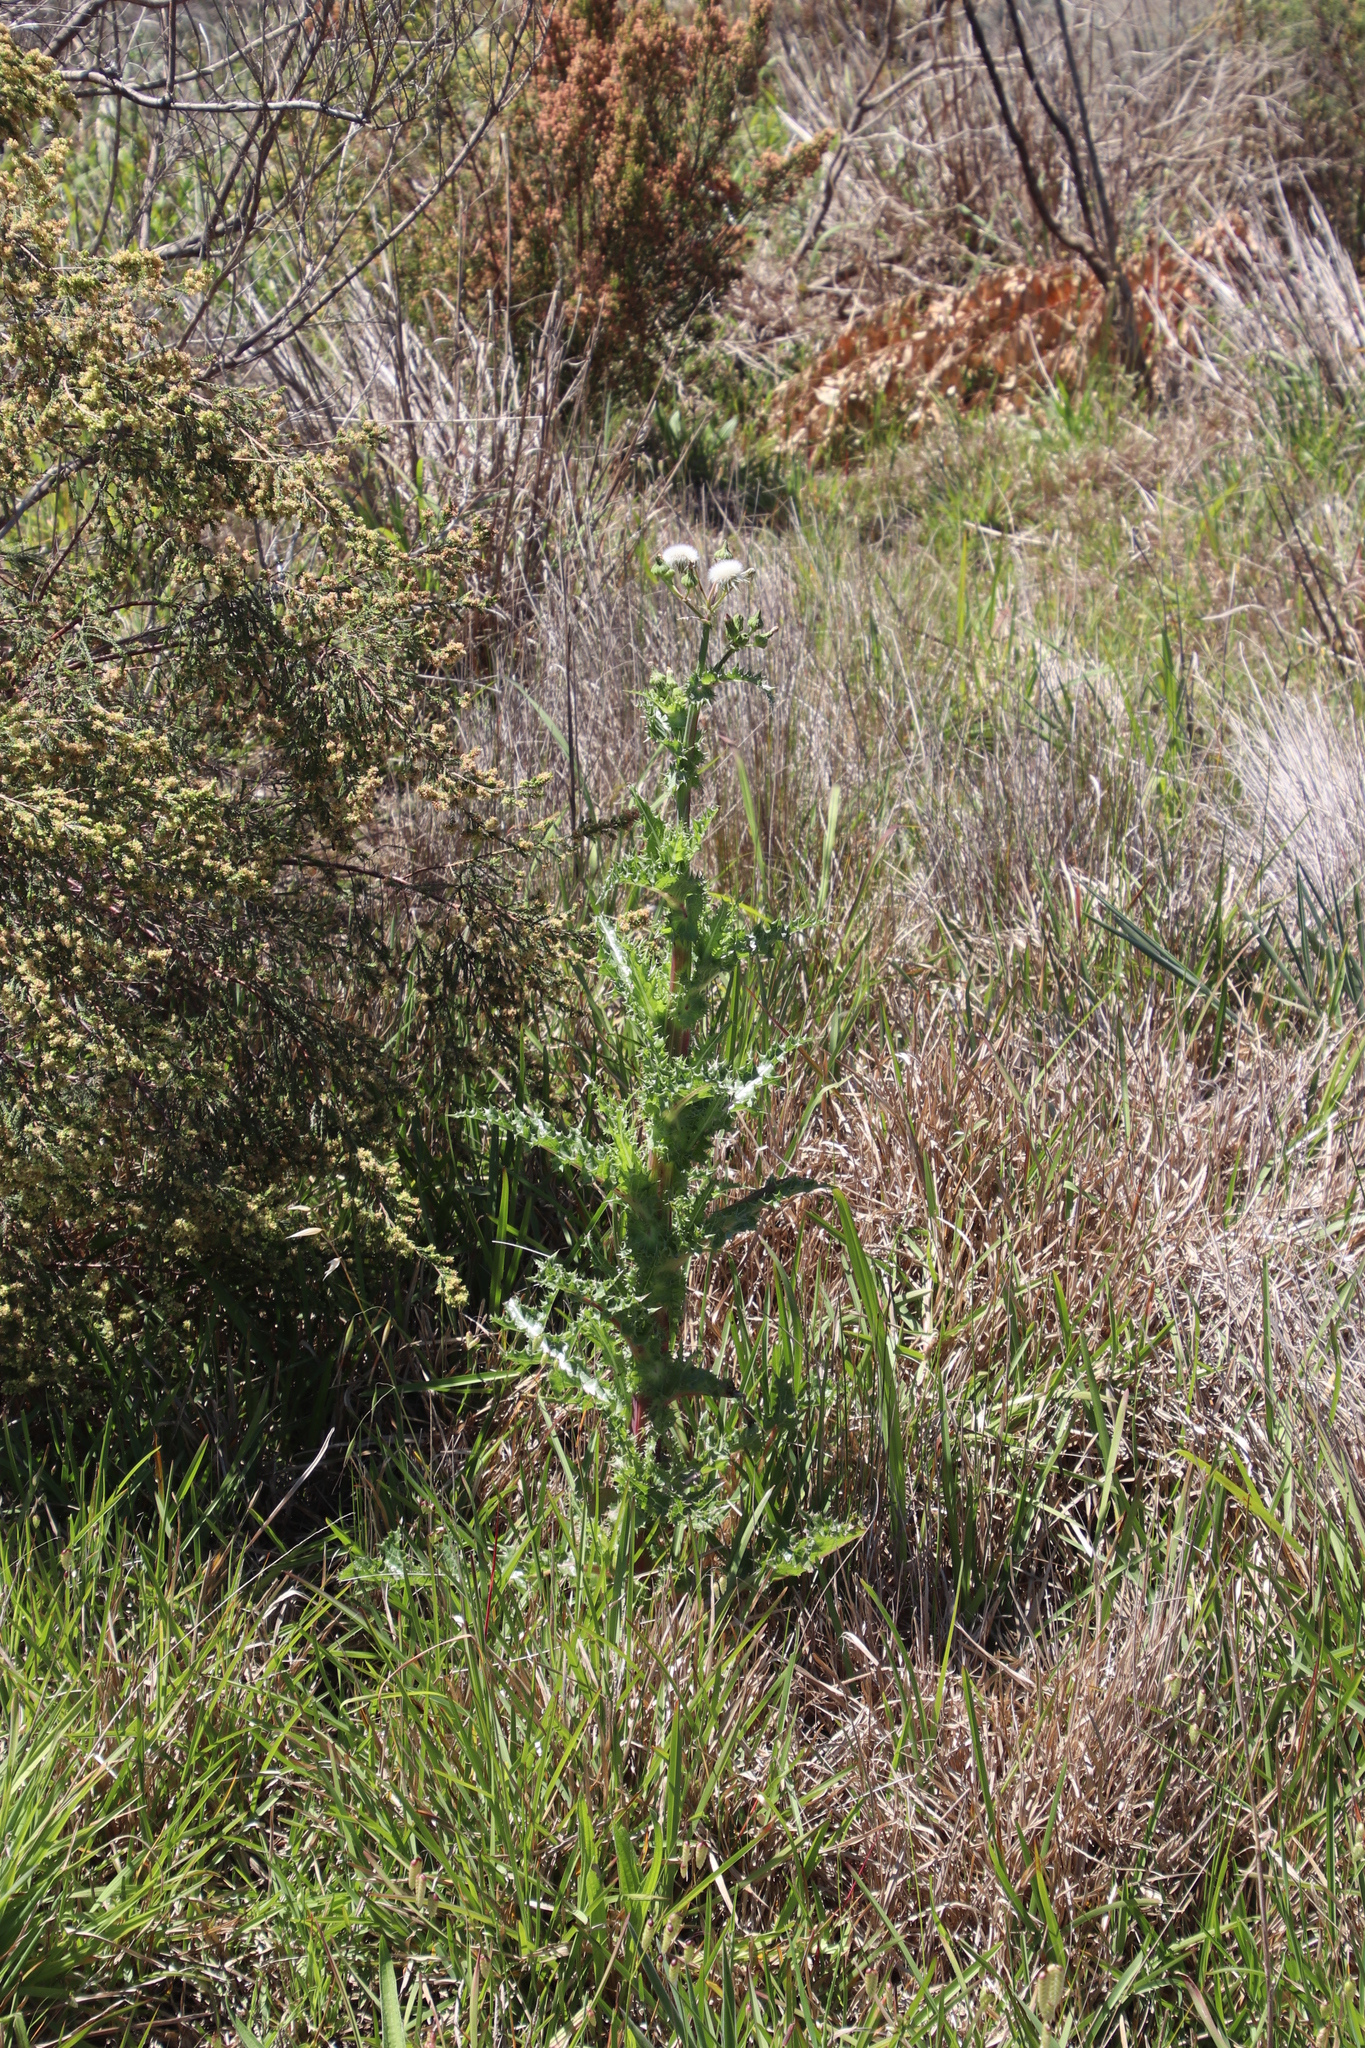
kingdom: Plantae
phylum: Tracheophyta
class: Magnoliopsida
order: Asterales
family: Asteraceae
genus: Sonchus
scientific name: Sonchus asper
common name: Prickly sow-thistle
